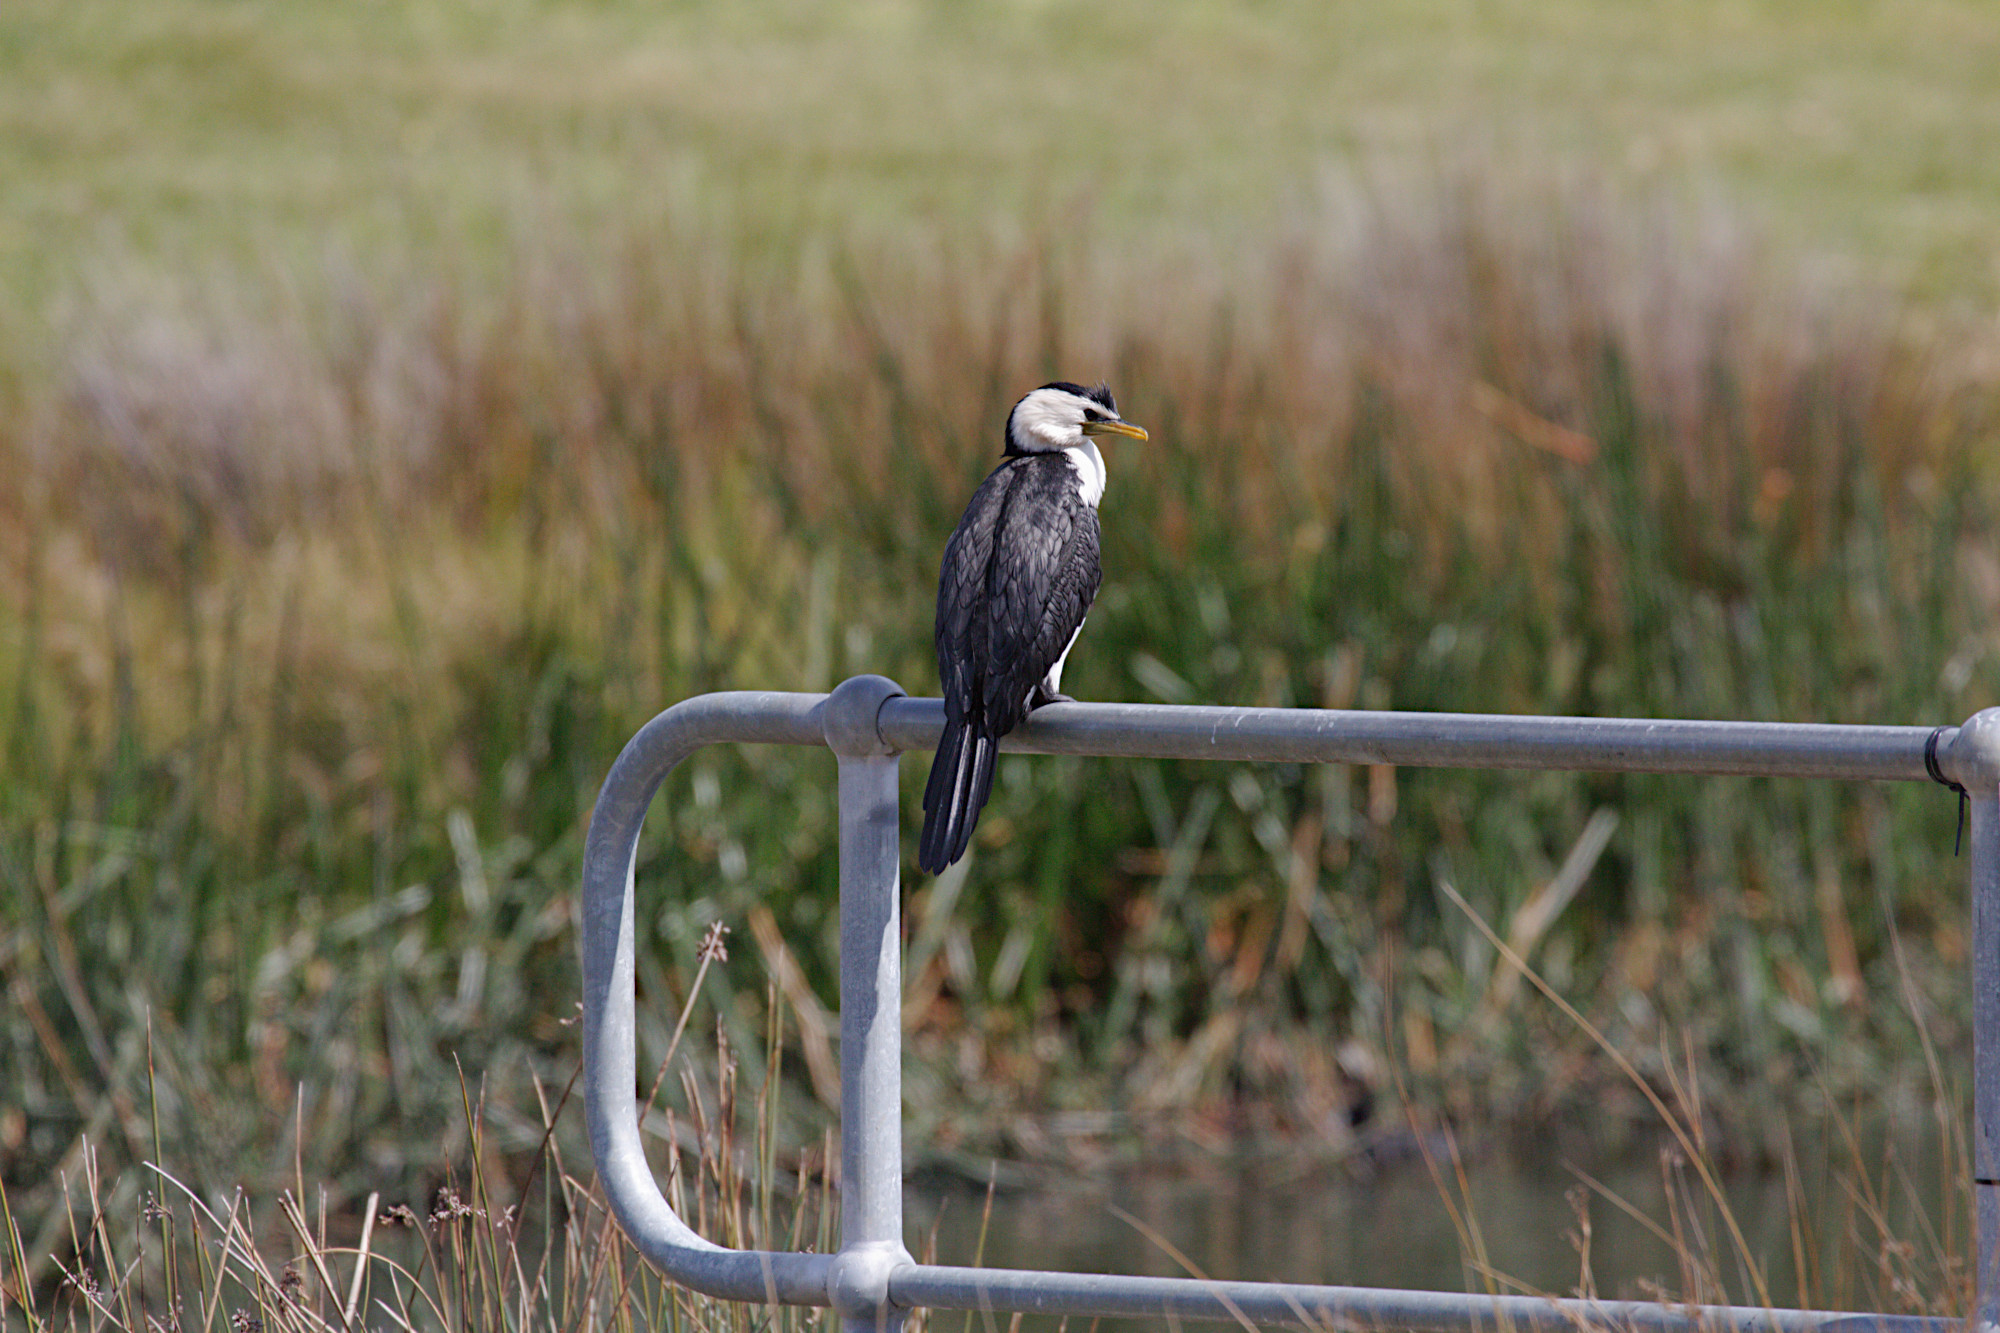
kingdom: Animalia
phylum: Chordata
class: Aves
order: Suliformes
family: Phalacrocoracidae
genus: Microcarbo
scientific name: Microcarbo melanoleucos
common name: Little pied cormorant
